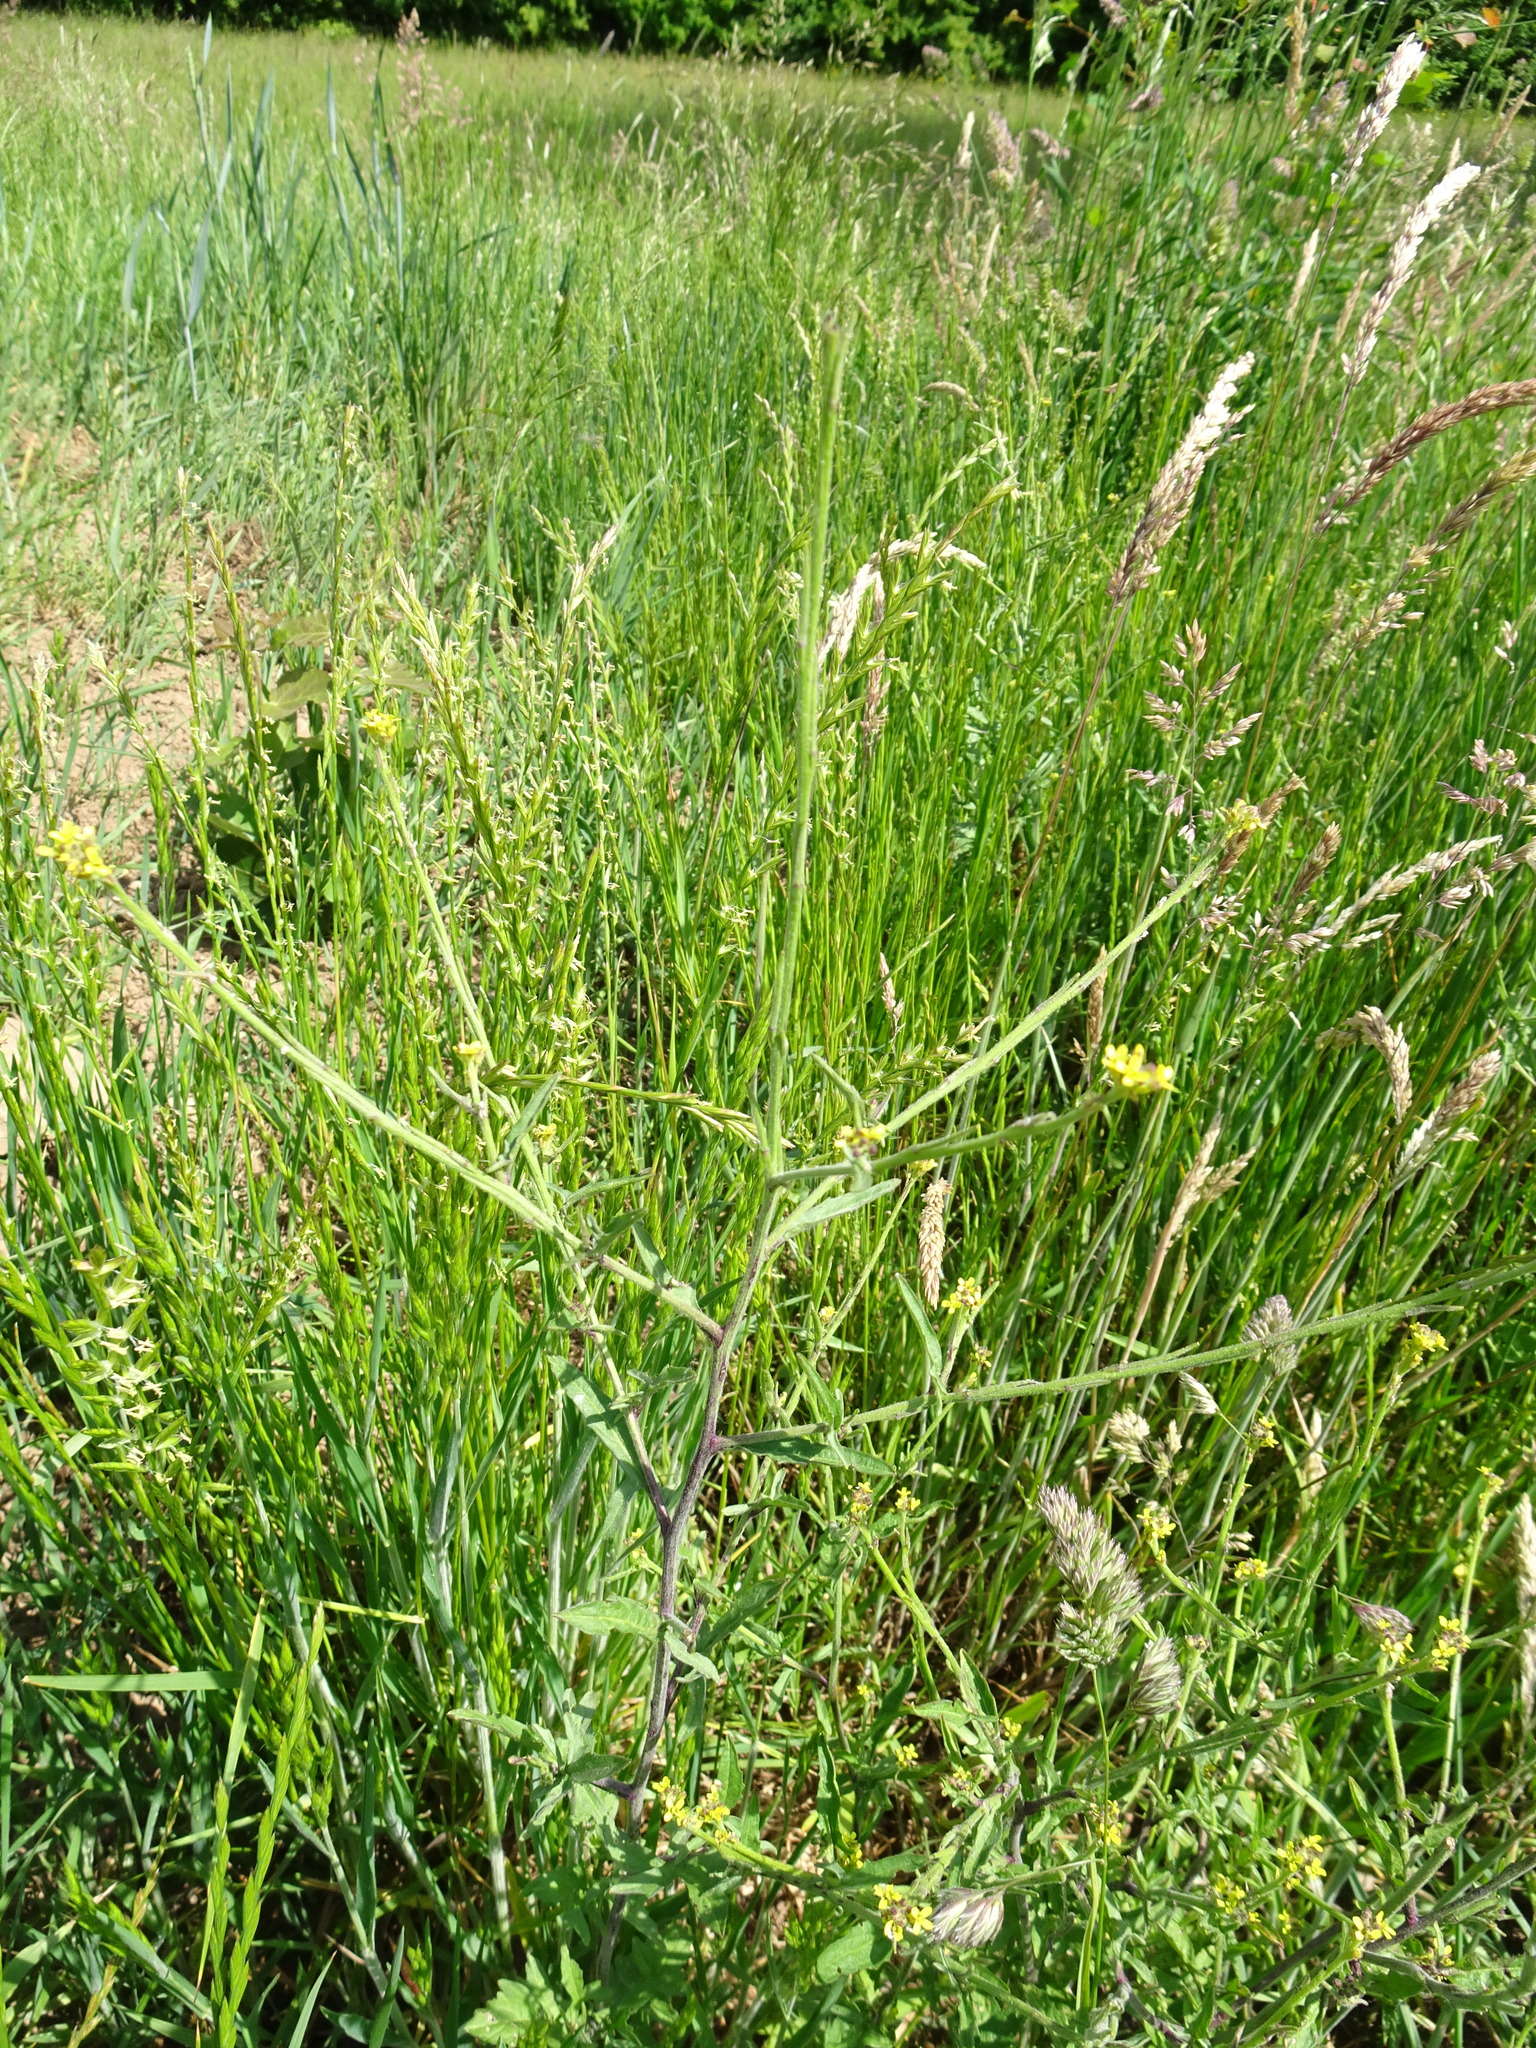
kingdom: Plantae
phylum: Tracheophyta
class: Magnoliopsida
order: Brassicales
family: Brassicaceae
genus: Sisymbrium
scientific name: Sisymbrium officinale
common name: Hedge mustard
